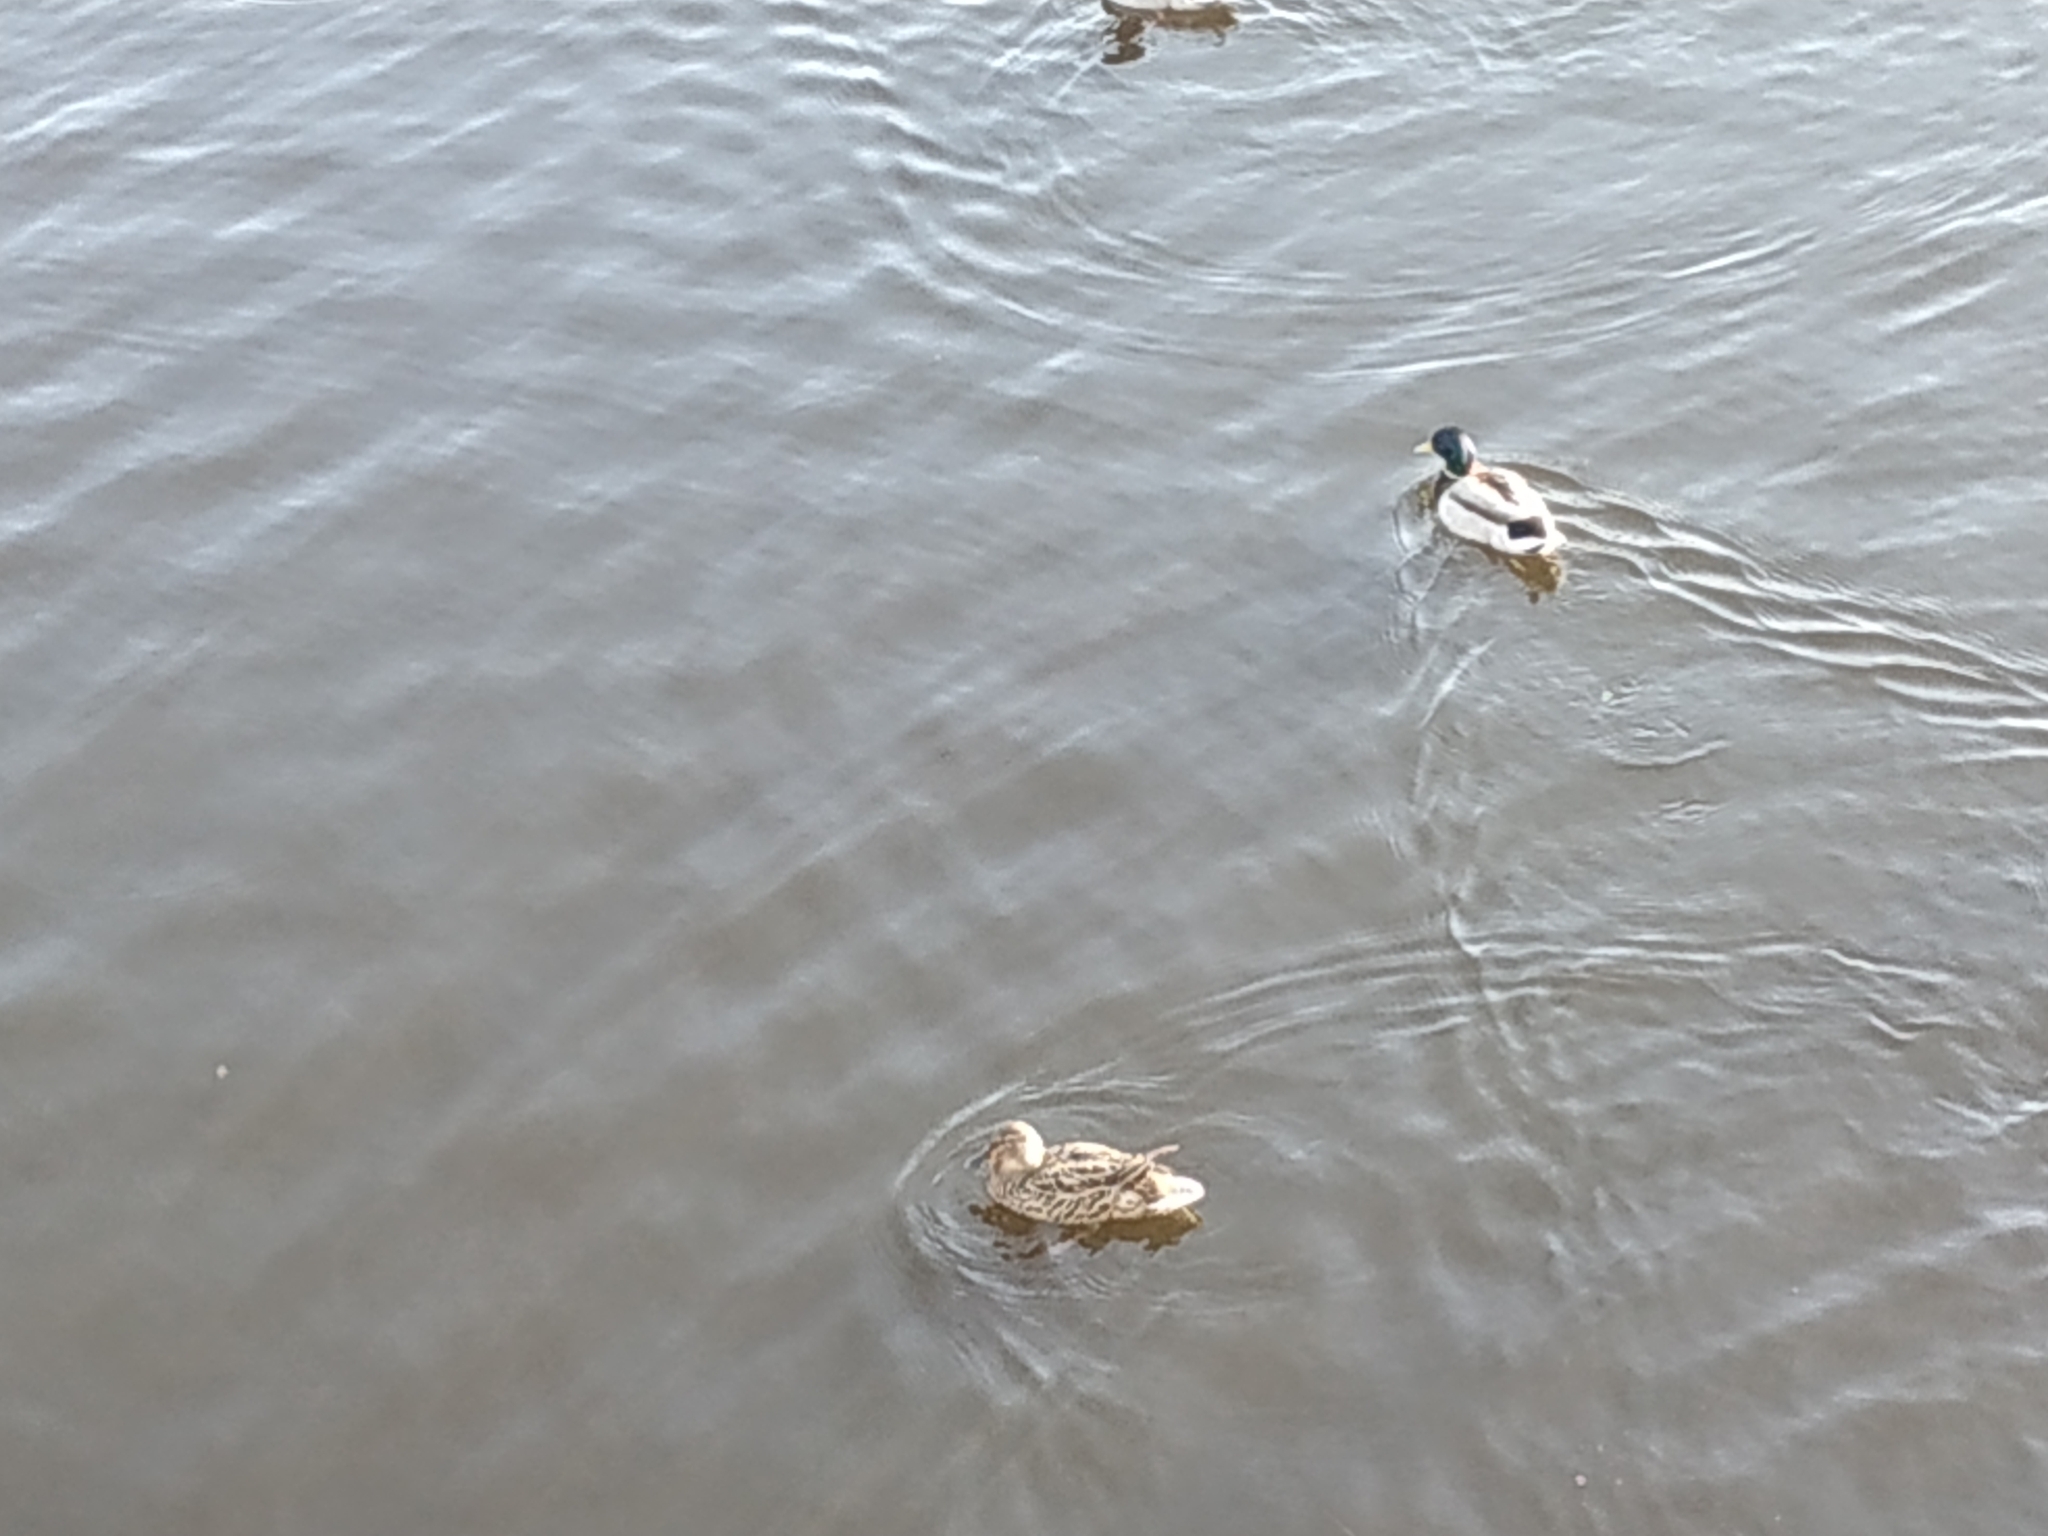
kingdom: Animalia
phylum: Chordata
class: Aves
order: Anseriformes
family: Anatidae
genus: Anas
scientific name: Anas platyrhynchos
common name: Mallard
